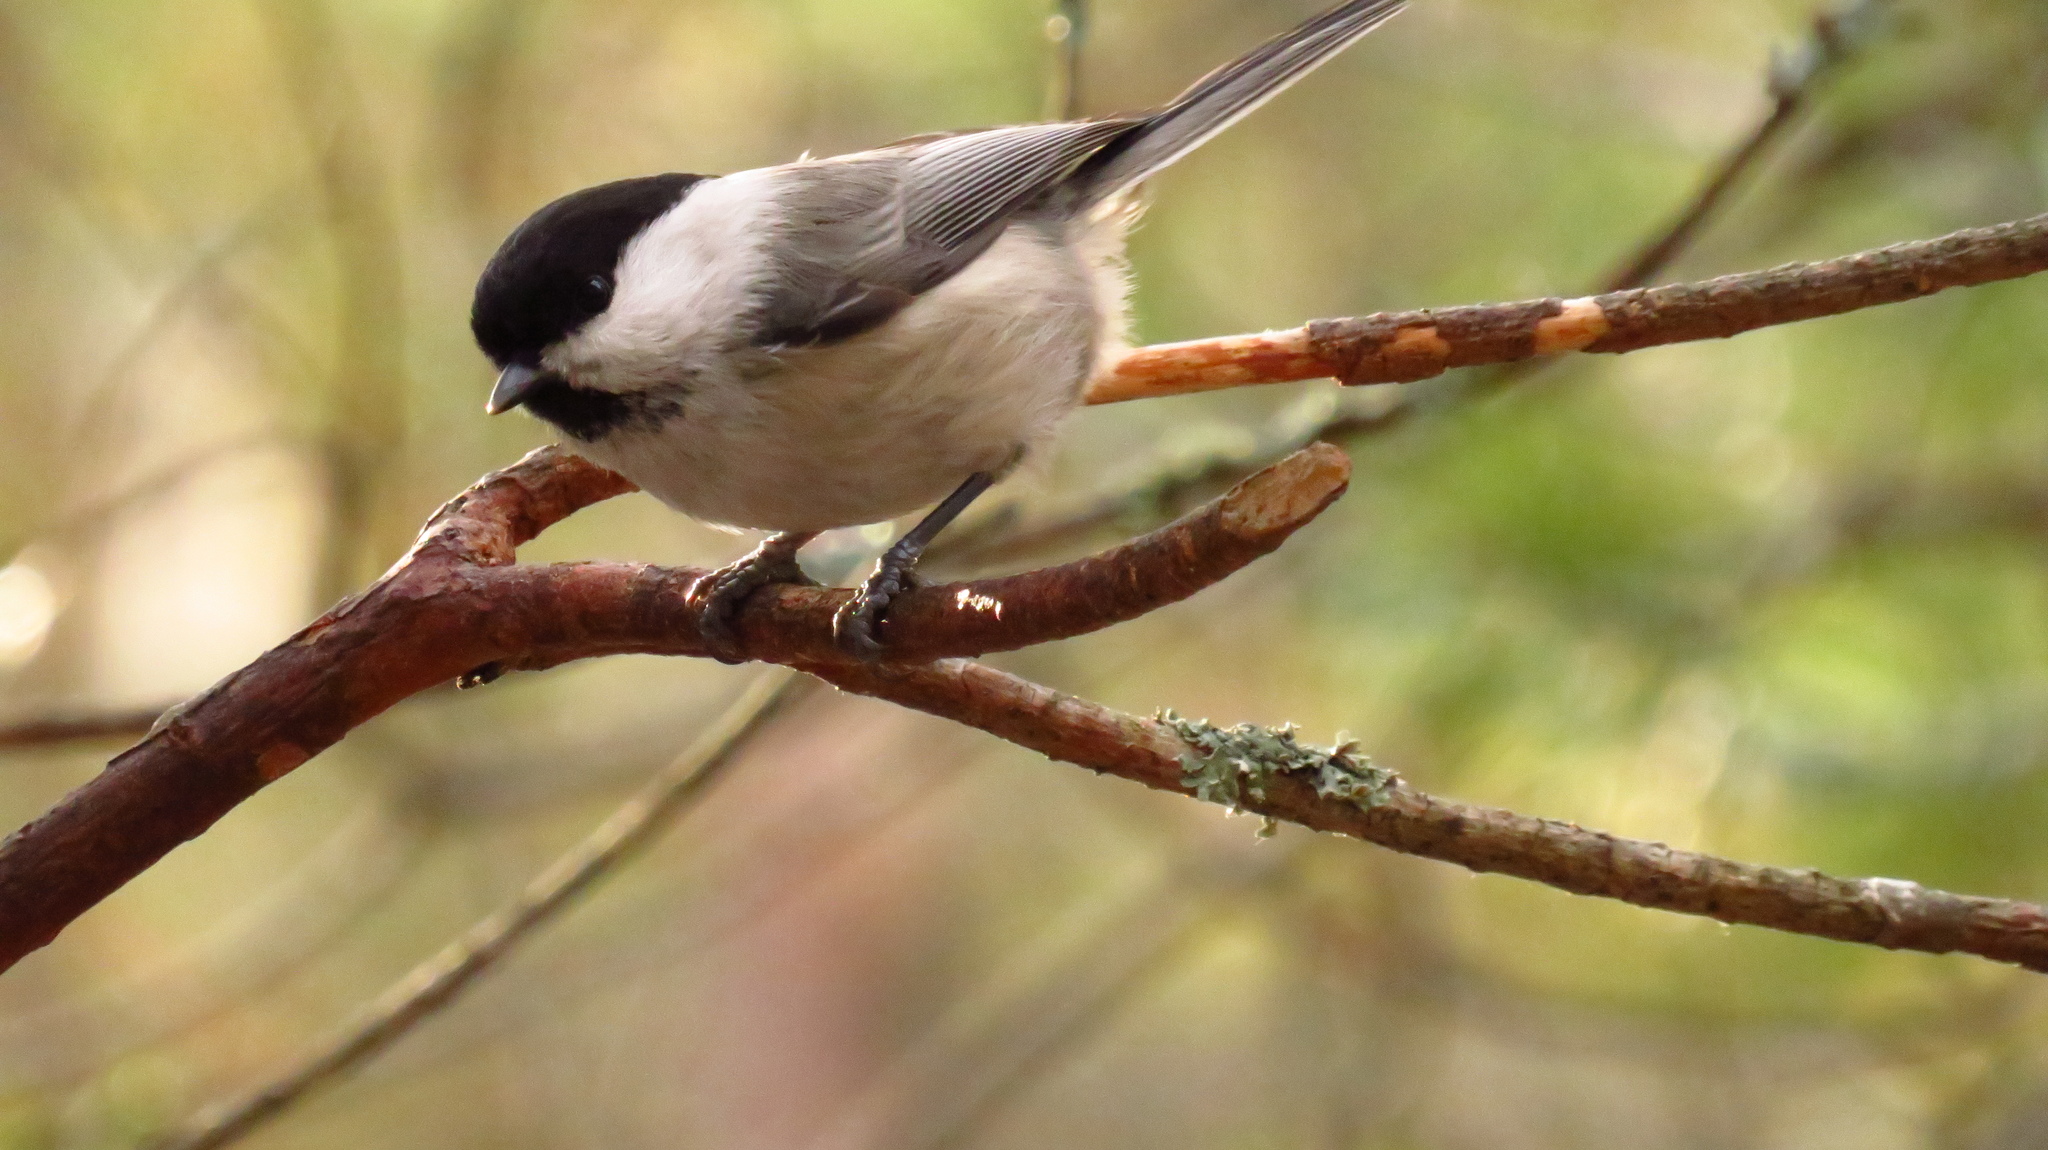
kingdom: Animalia
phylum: Chordata
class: Aves
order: Passeriformes
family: Paridae
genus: Poecile
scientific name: Poecile montanus
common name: Willow tit
